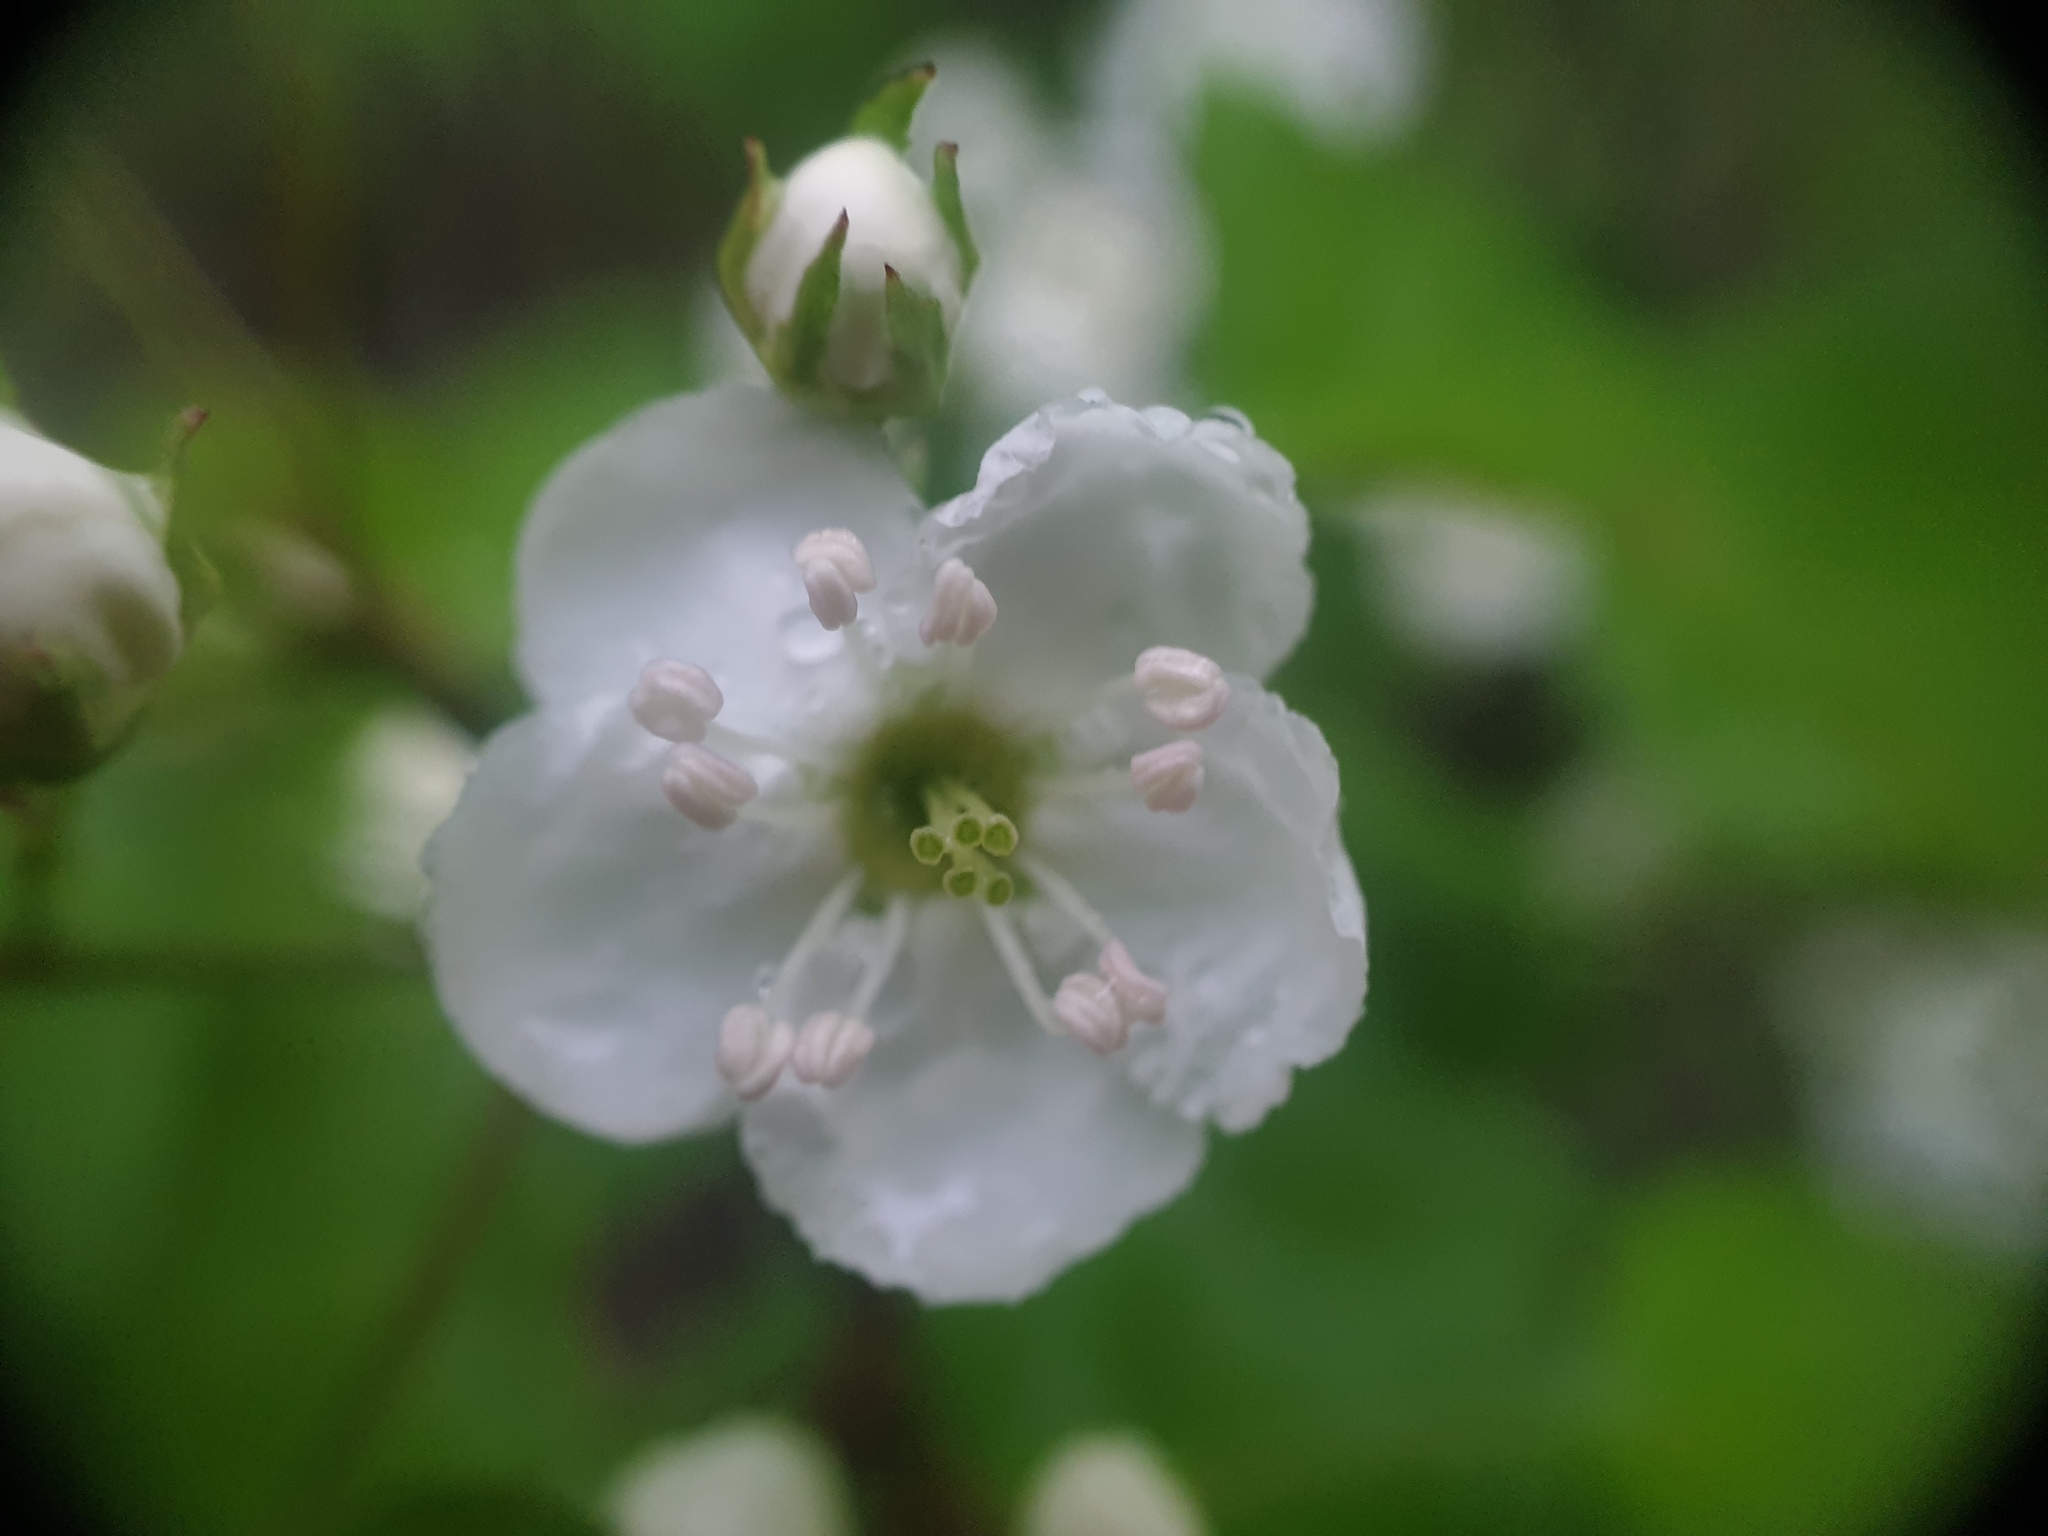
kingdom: Plantae
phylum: Tracheophyta
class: Magnoliopsida
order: Rosales
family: Rosaceae
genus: Crataegus
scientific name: Crataegus fluviatilis
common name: Fort sheridan hawthorn
